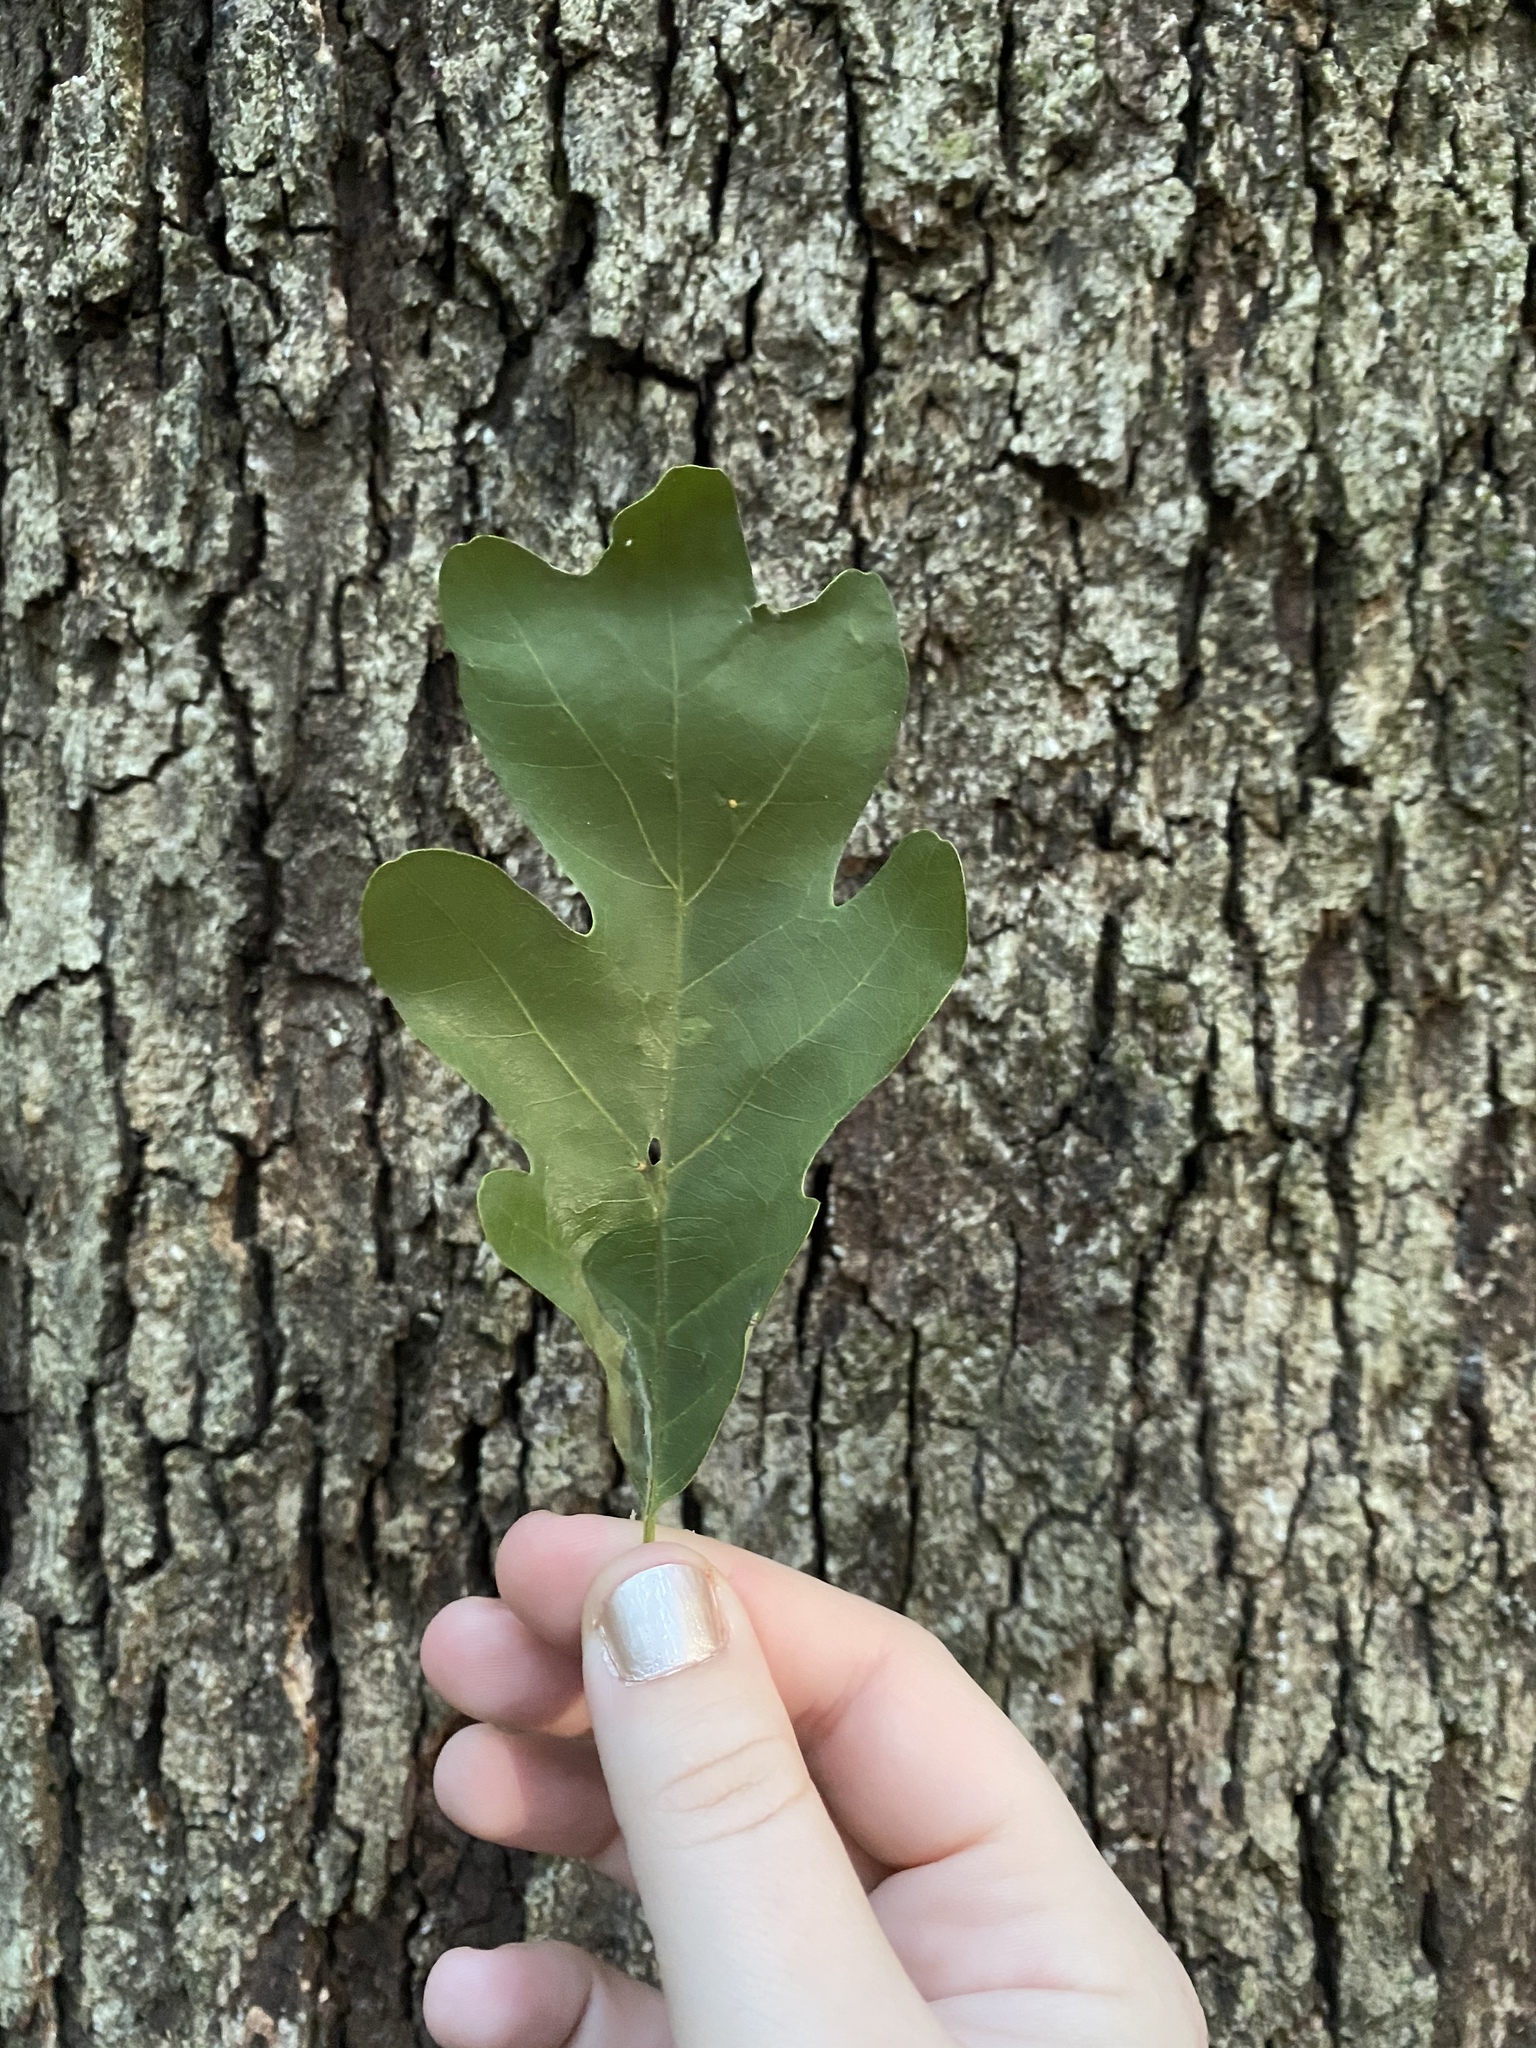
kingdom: Plantae
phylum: Tracheophyta
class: Magnoliopsida
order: Fagales
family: Fagaceae
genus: Quercus
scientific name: Quercus alba
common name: White oak
